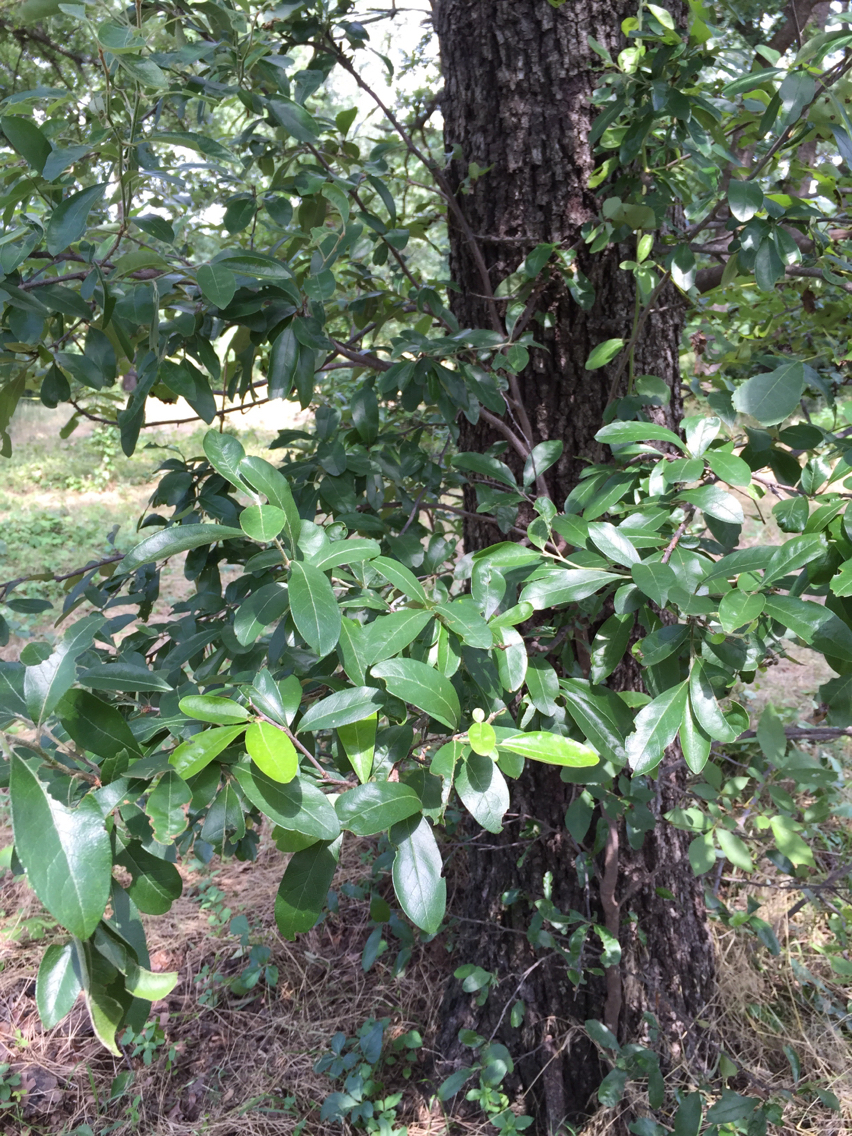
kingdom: Plantae
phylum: Tracheophyta
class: Magnoliopsida
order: Ericales
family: Sapotaceae
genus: Sideroxylon
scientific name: Sideroxylon lanuginosum
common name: Chittamwood
